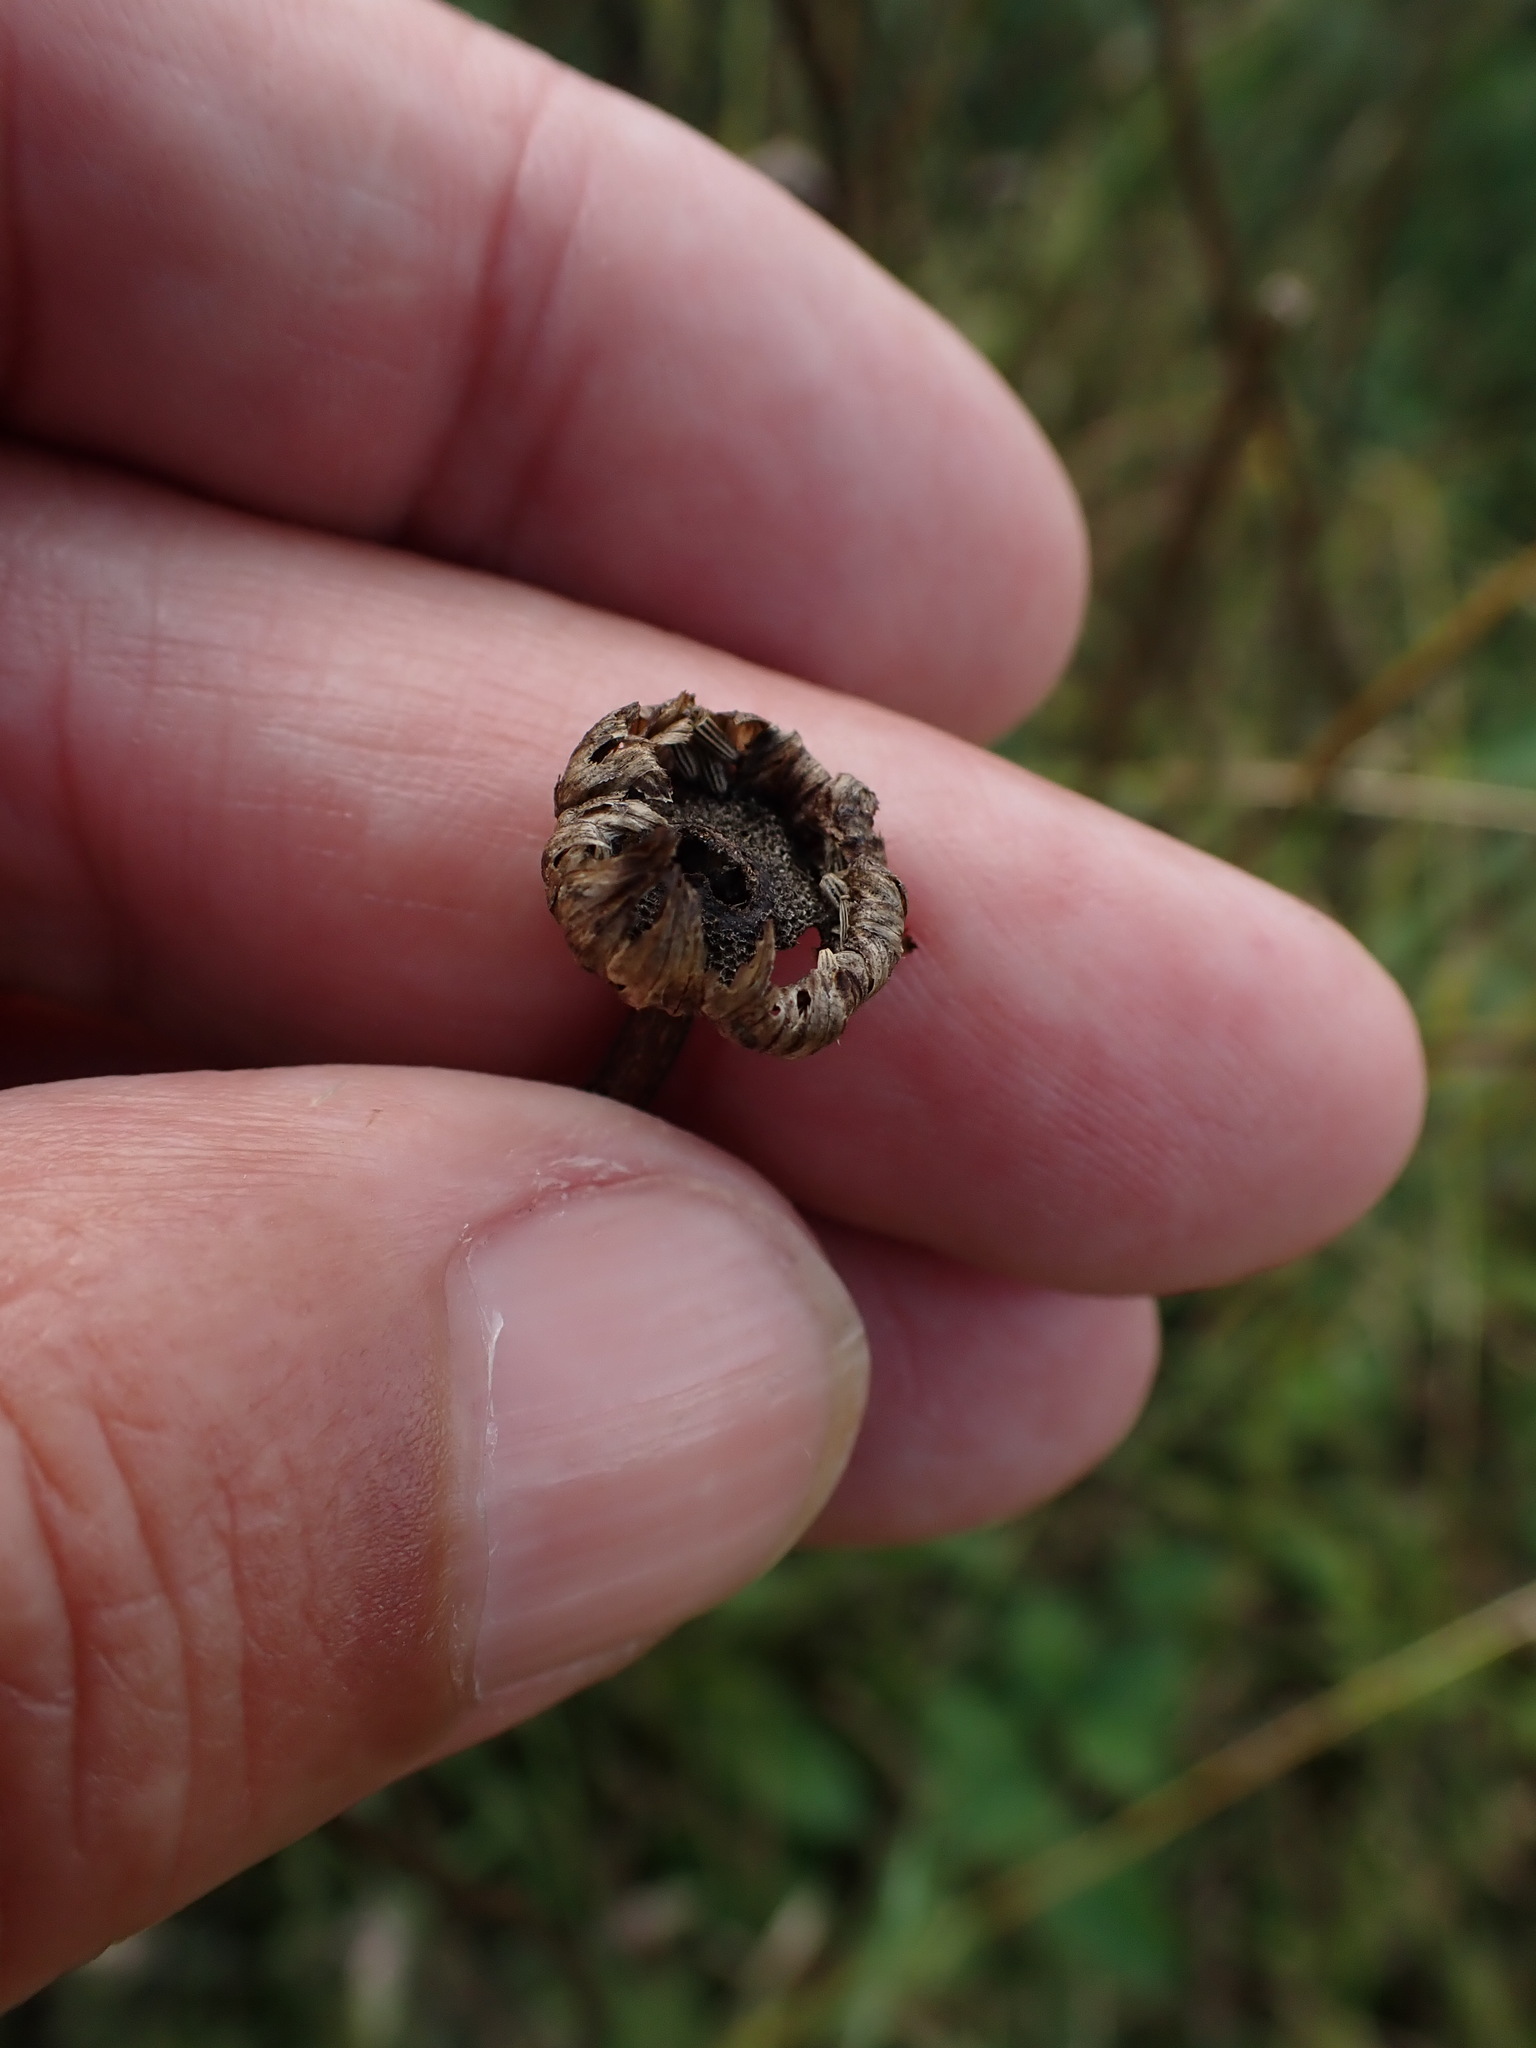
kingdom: Plantae
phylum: Tracheophyta
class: Magnoliopsida
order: Asterales
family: Asteraceae
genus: Leucanthemum
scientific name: Leucanthemum vulgare
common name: Oxeye daisy
